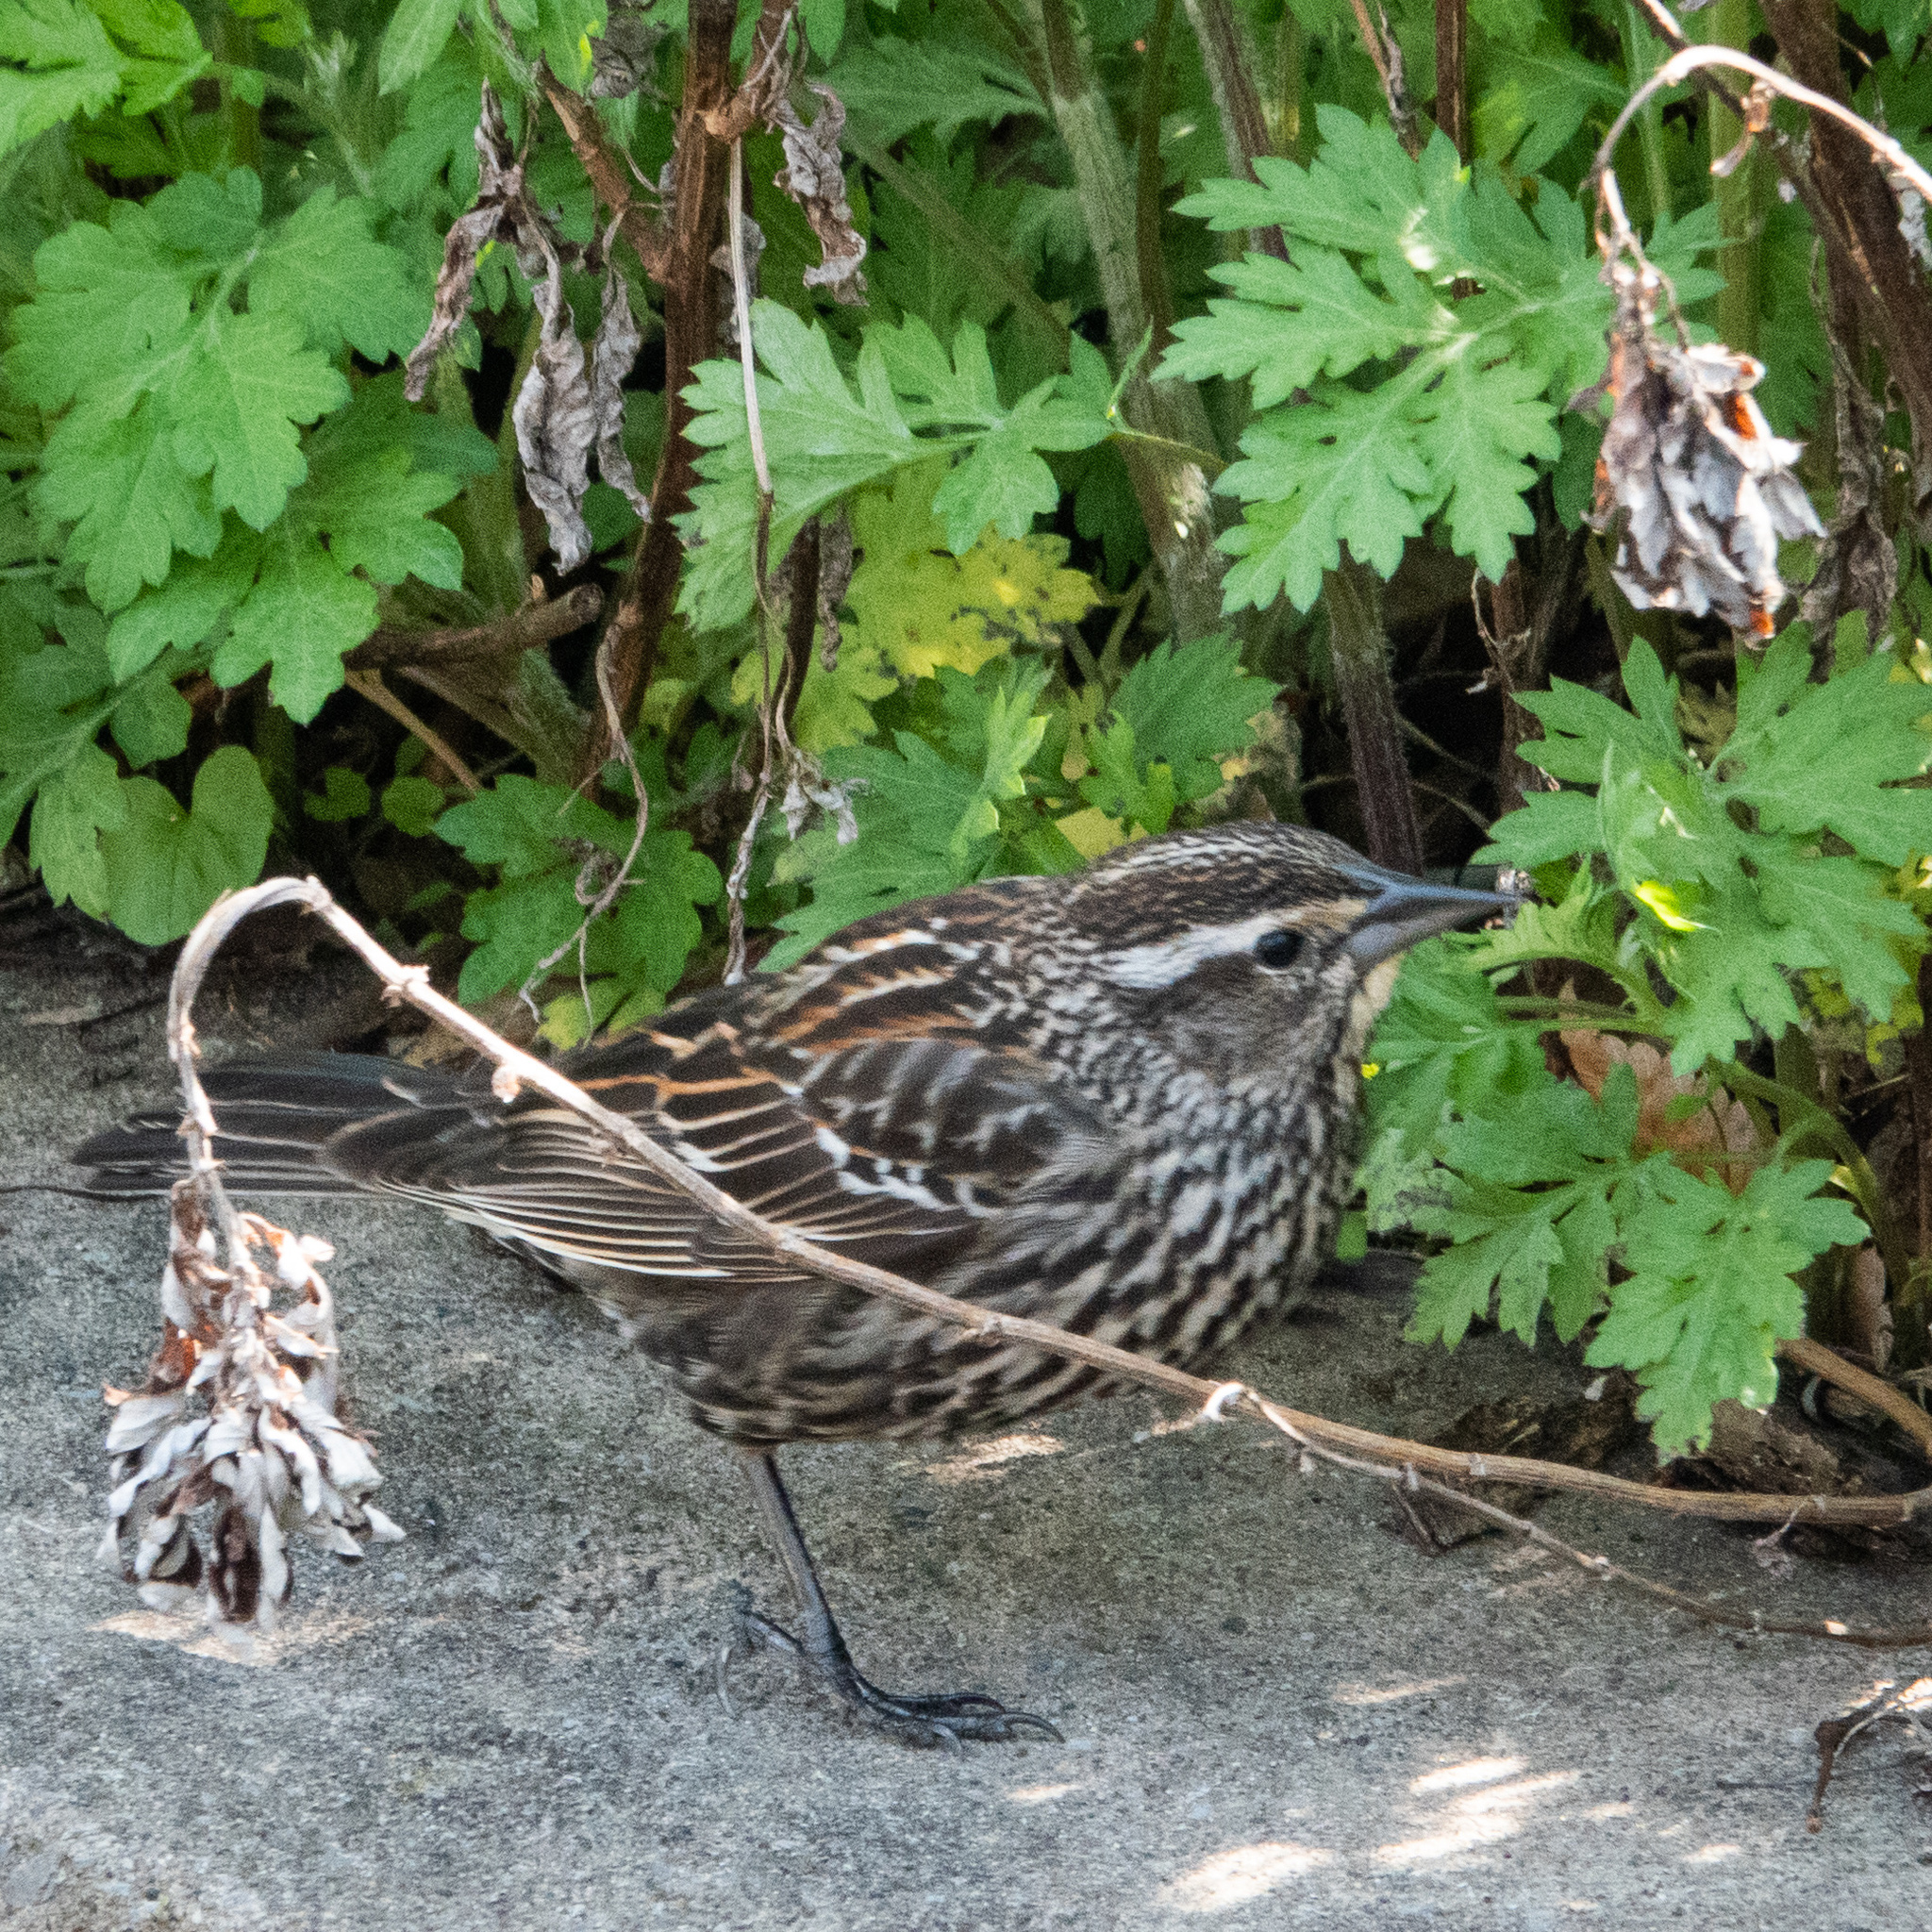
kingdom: Animalia
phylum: Chordata
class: Aves
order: Passeriformes
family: Icteridae
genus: Agelaius
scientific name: Agelaius phoeniceus
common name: Red-winged blackbird
